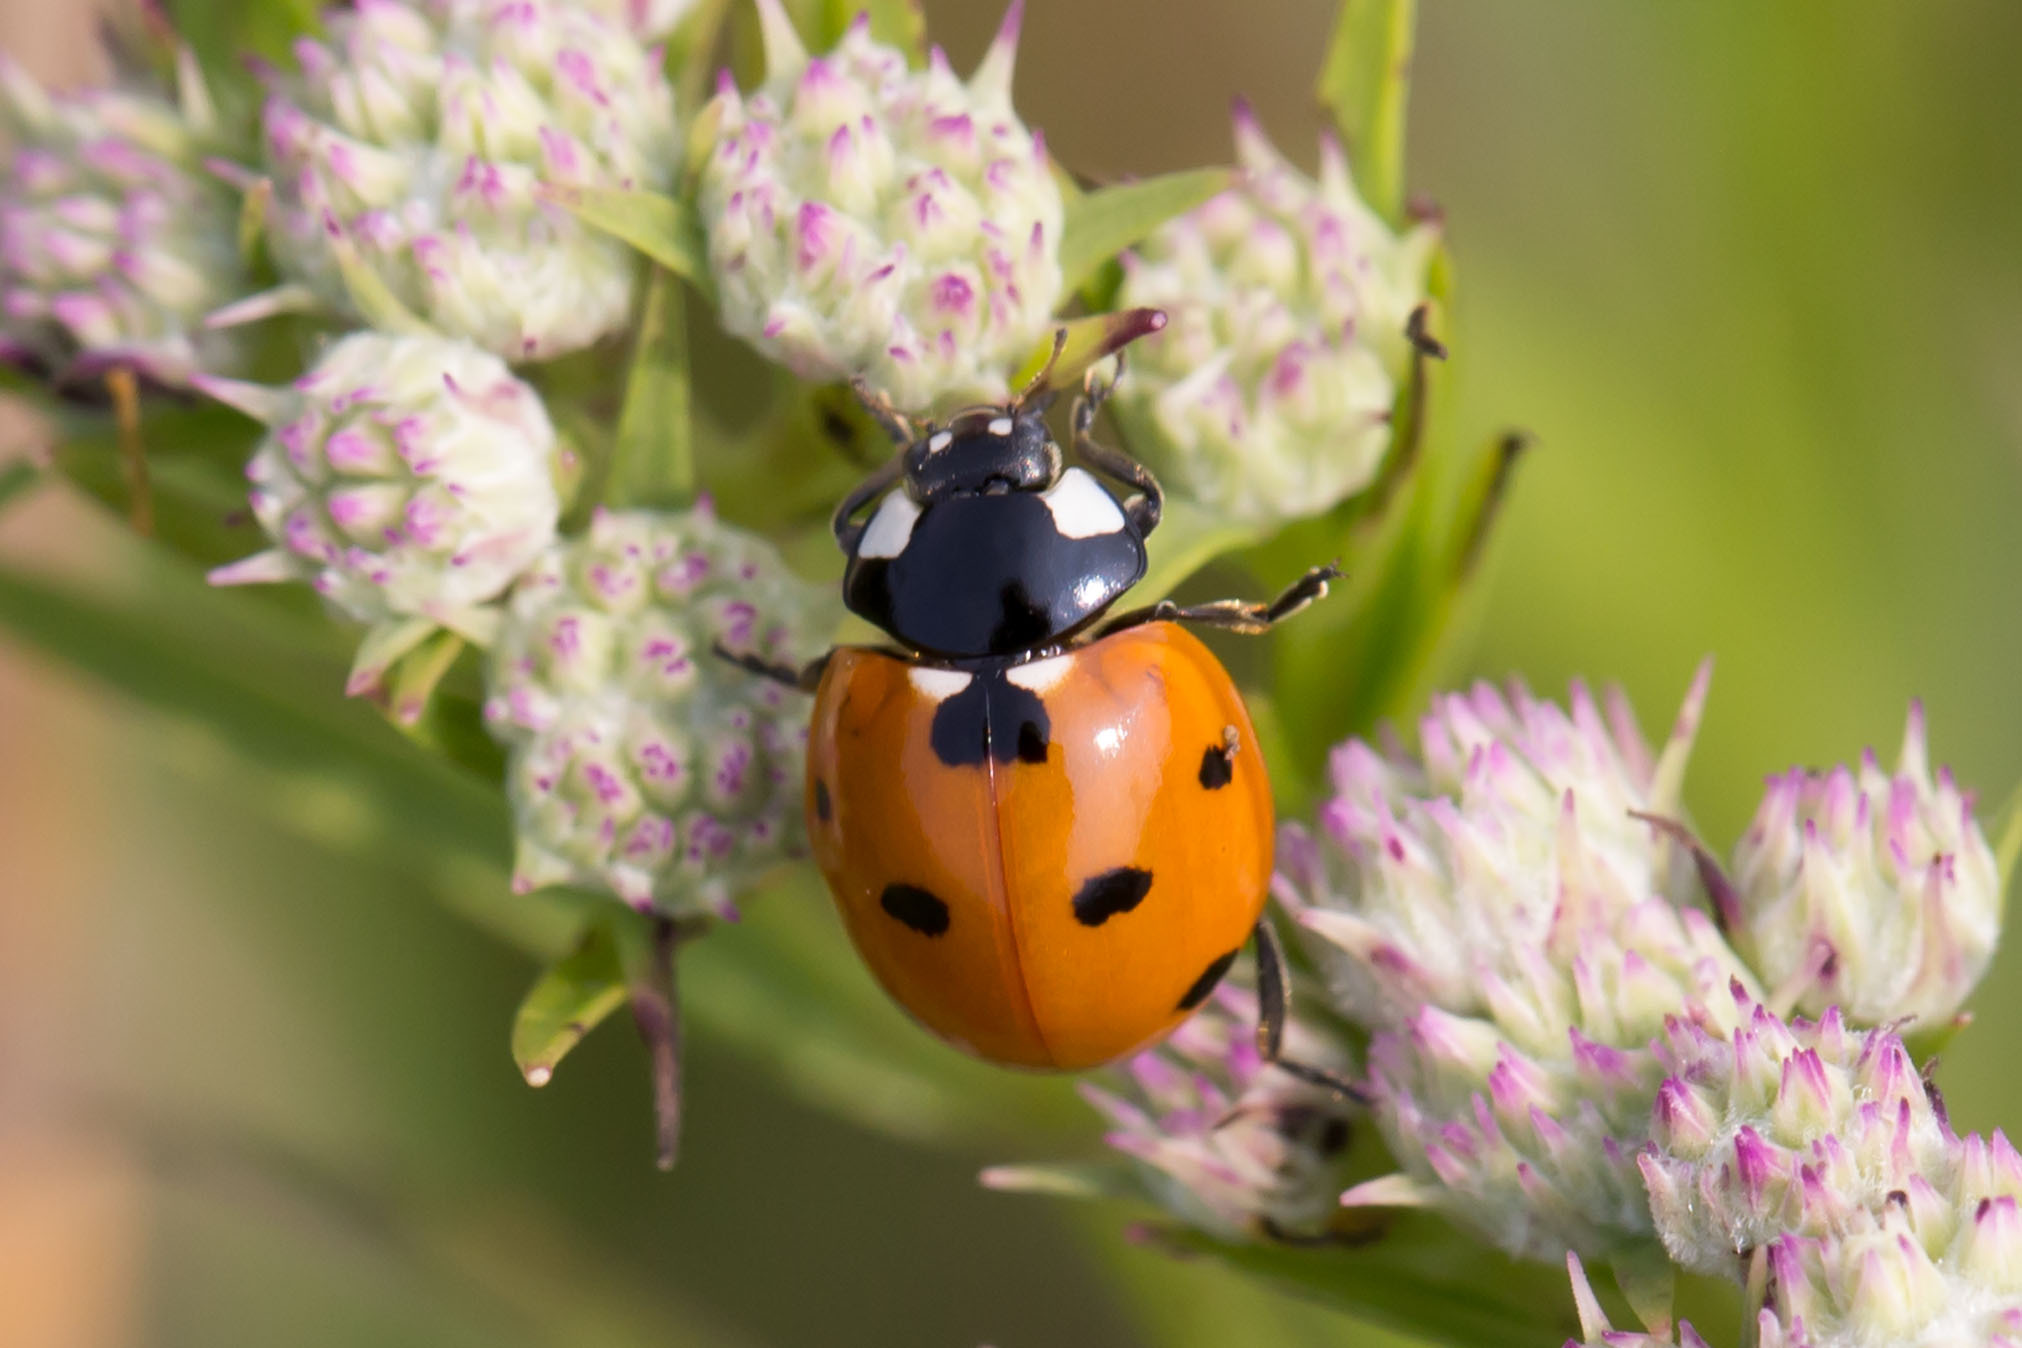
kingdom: Animalia
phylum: Arthropoda
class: Insecta
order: Coleoptera
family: Coccinellidae
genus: Coccinella
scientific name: Coccinella septempunctata
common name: Sevenspotted lady beetle
